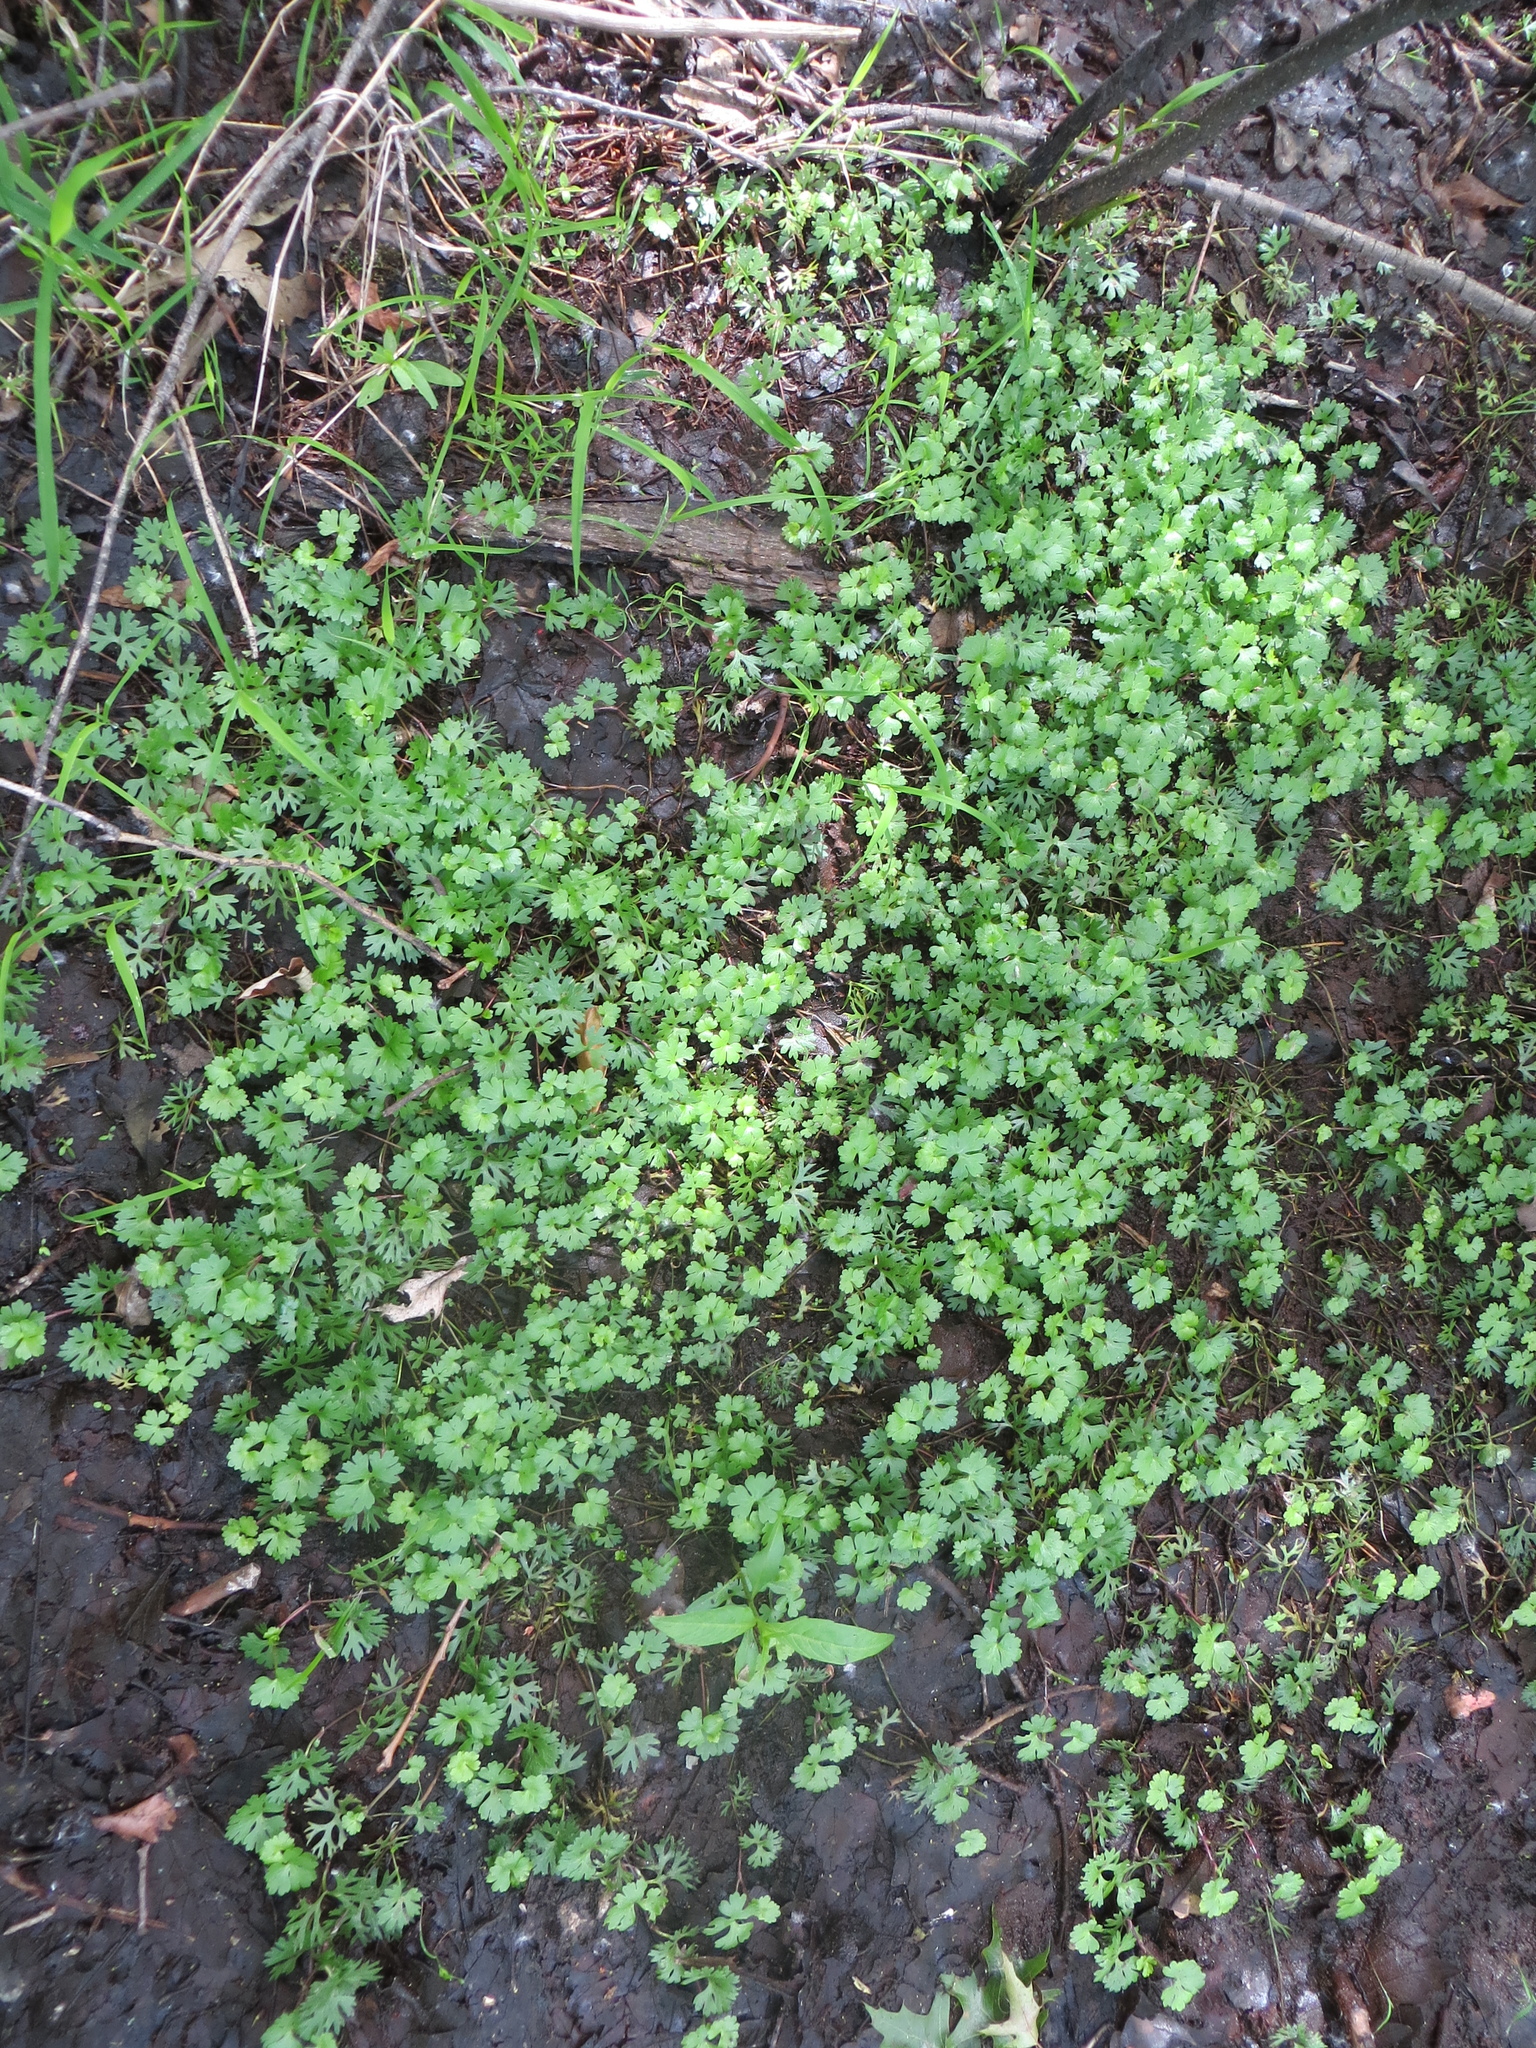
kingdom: Plantae
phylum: Tracheophyta
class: Magnoliopsida
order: Ranunculales
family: Ranunculaceae
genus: Ranunculus
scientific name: Ranunculus flabellaris
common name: Yellow water-crowfoot
